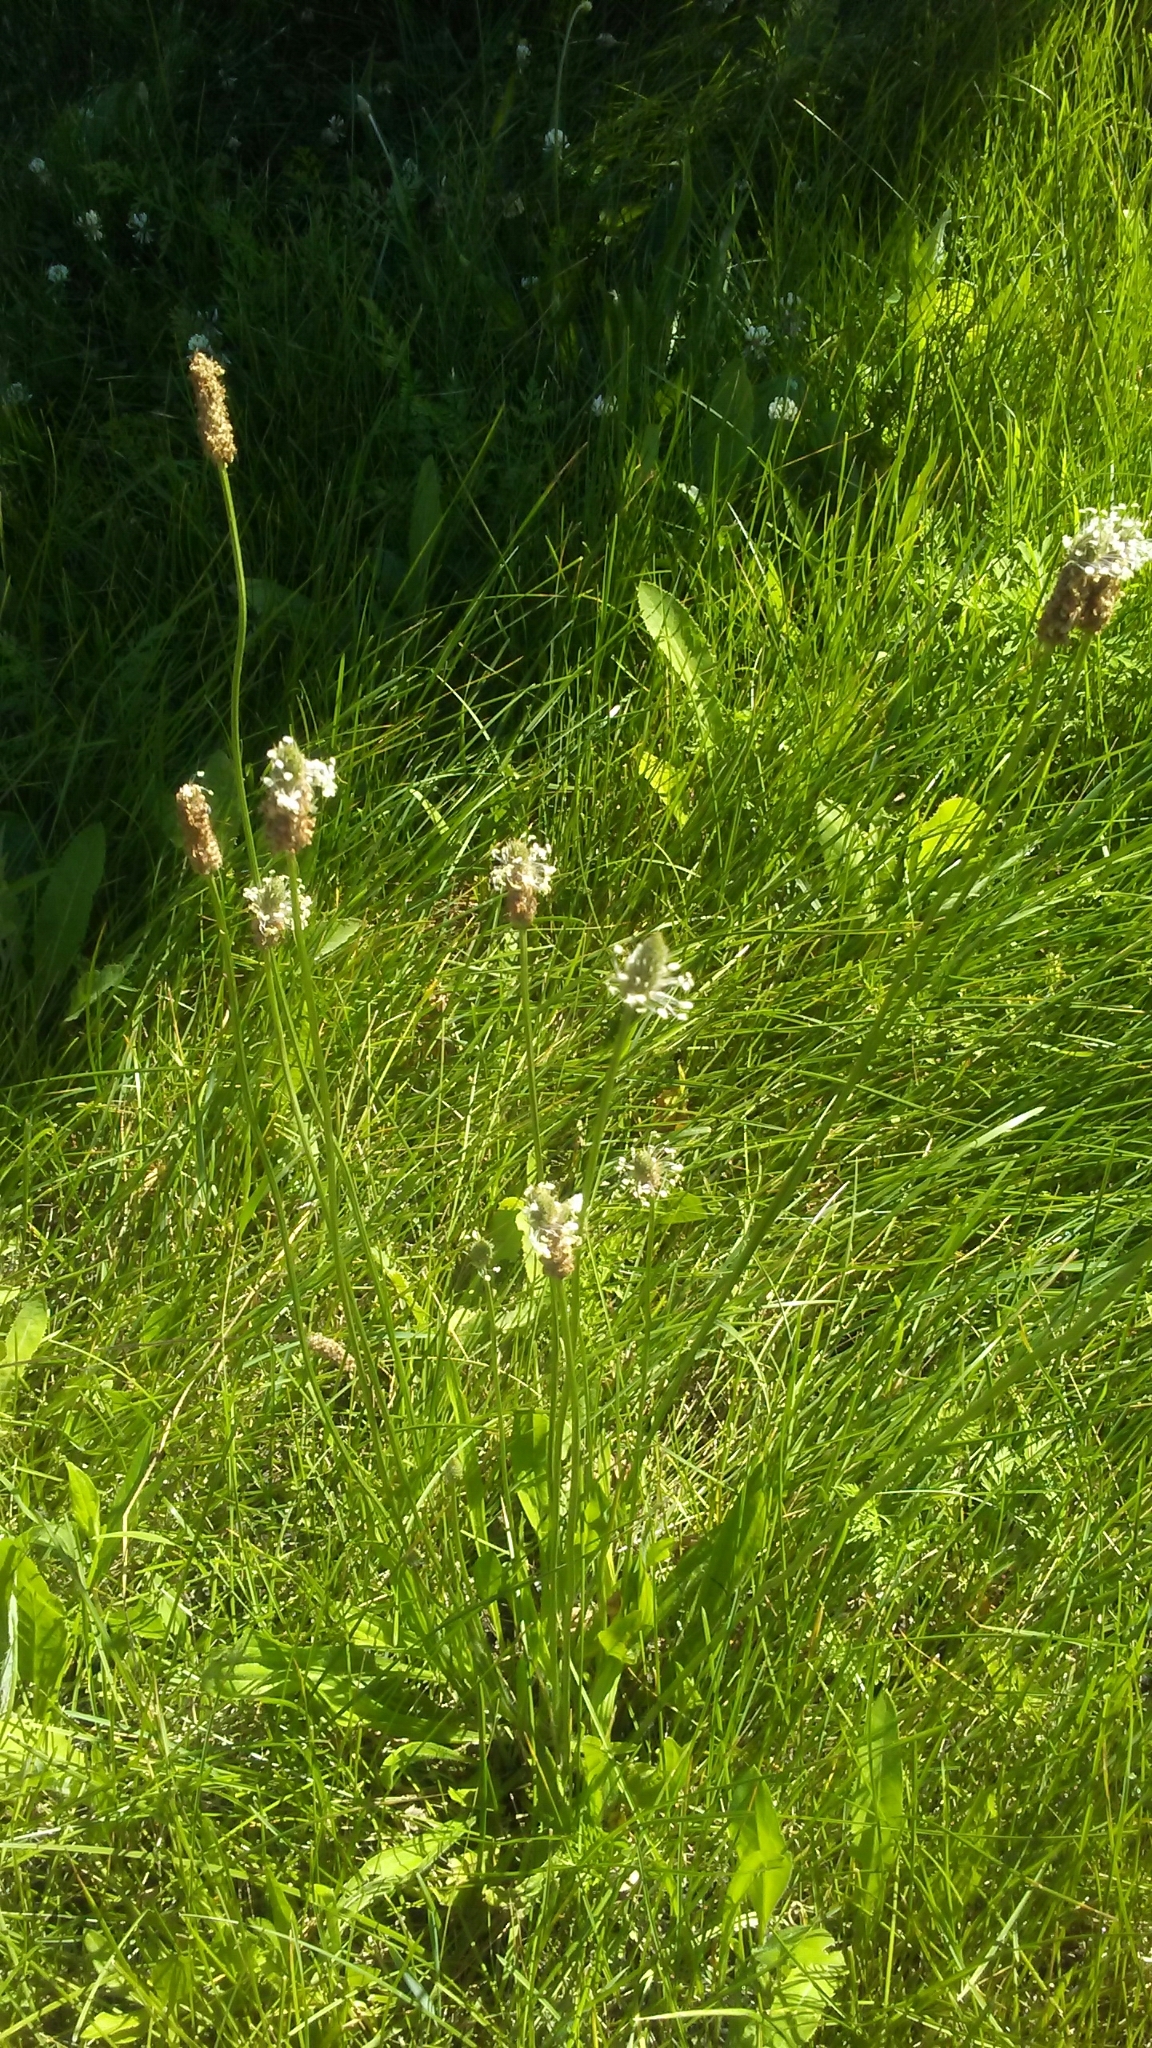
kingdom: Plantae
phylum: Tracheophyta
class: Magnoliopsida
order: Lamiales
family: Plantaginaceae
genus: Plantago
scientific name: Plantago lanceolata
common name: Ribwort plantain
